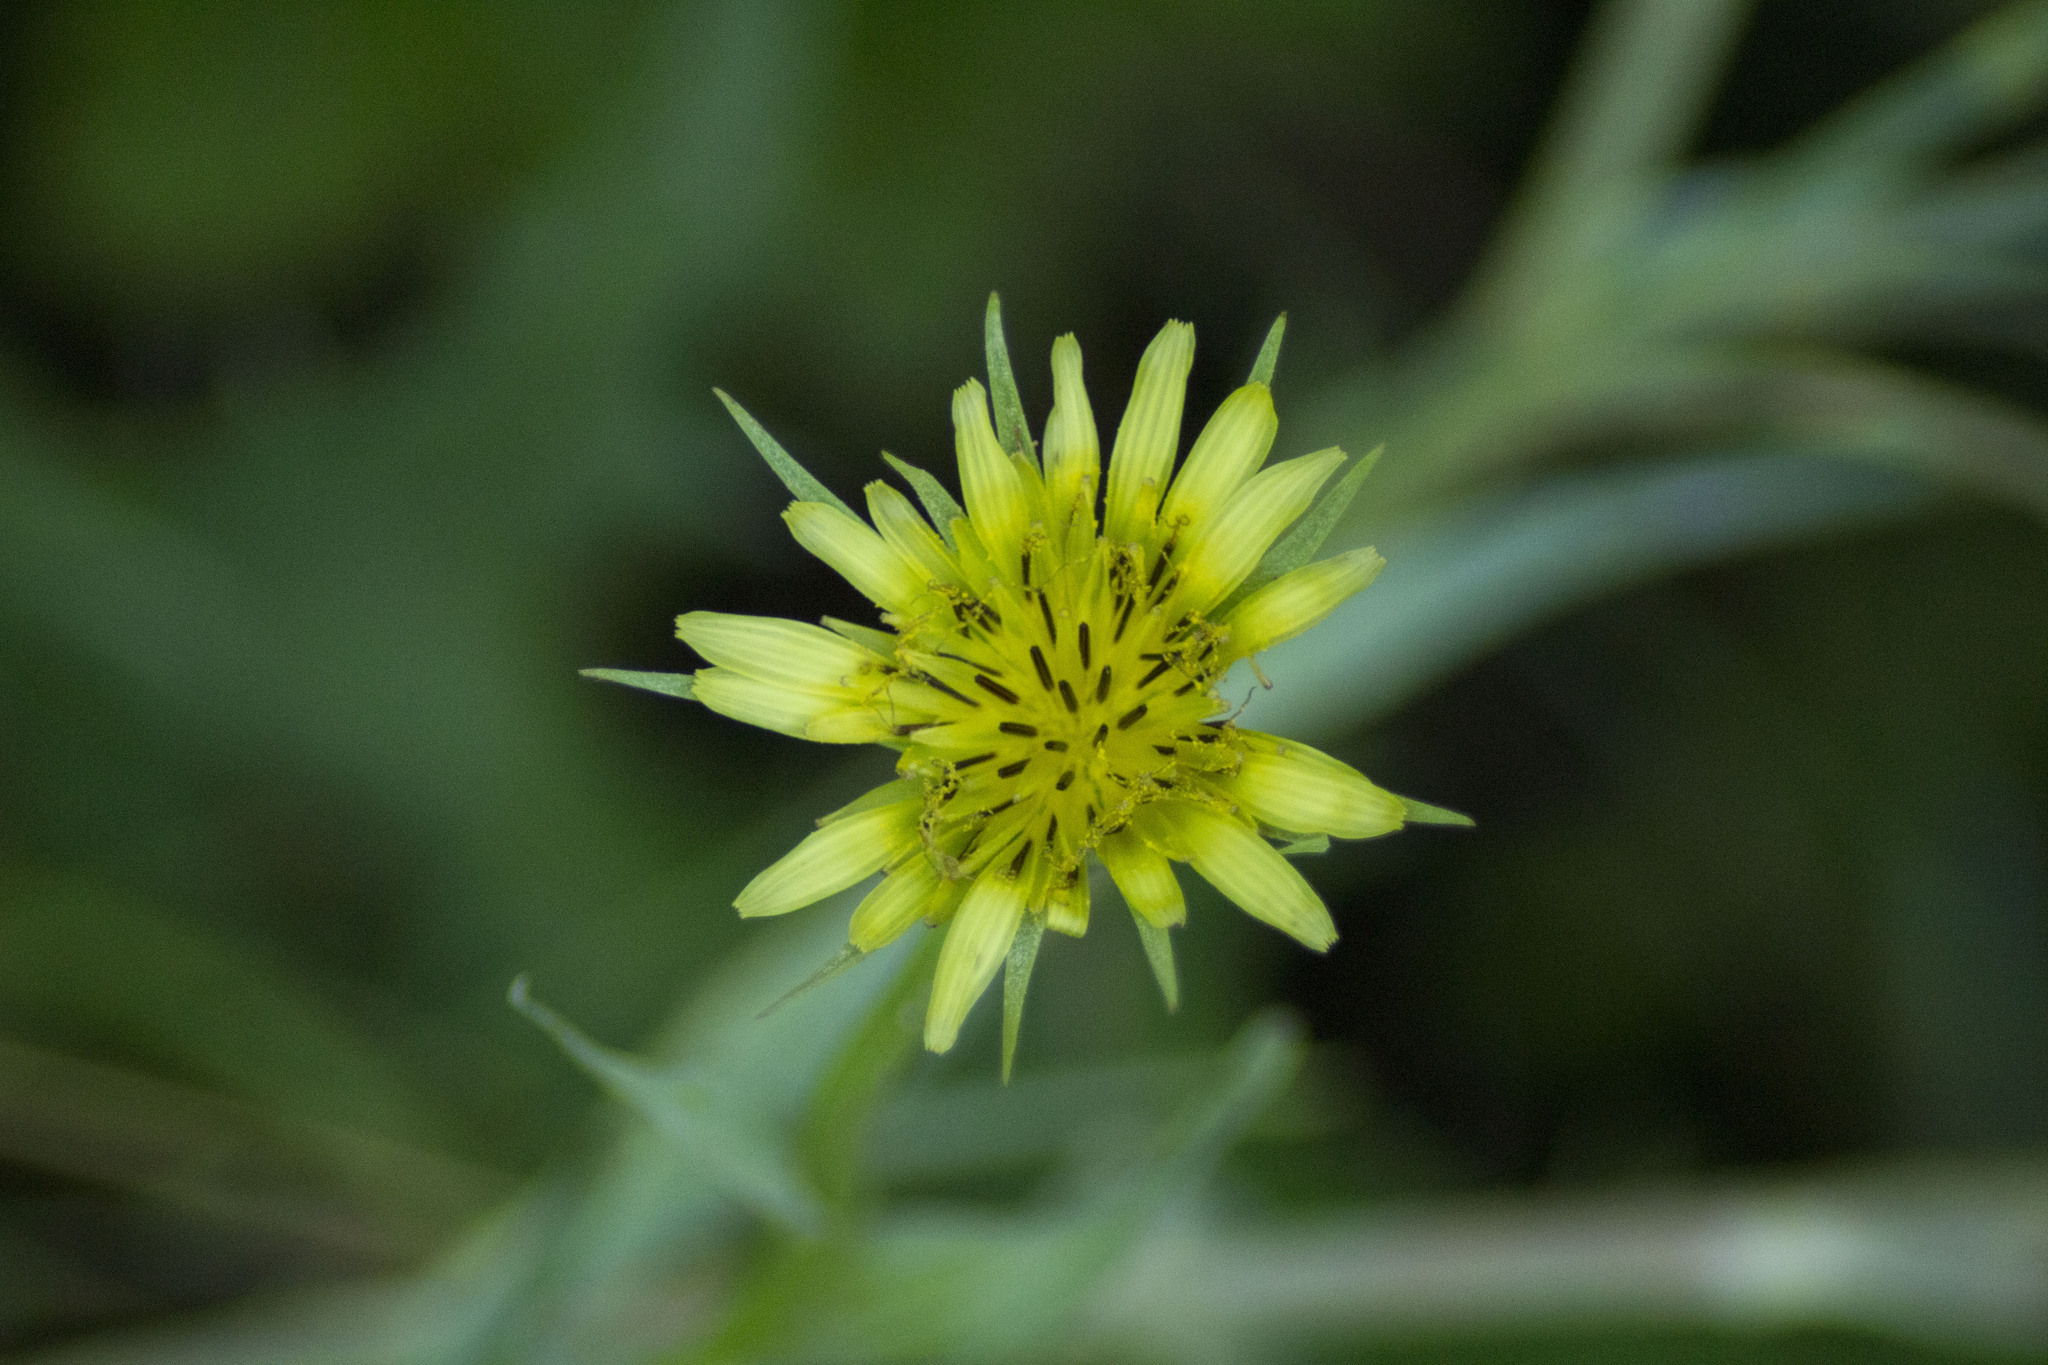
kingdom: Plantae
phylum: Tracheophyta
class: Magnoliopsida
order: Asterales
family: Asteraceae
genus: Tragopogon
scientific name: Tragopogon dubius
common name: Yellow salsify
